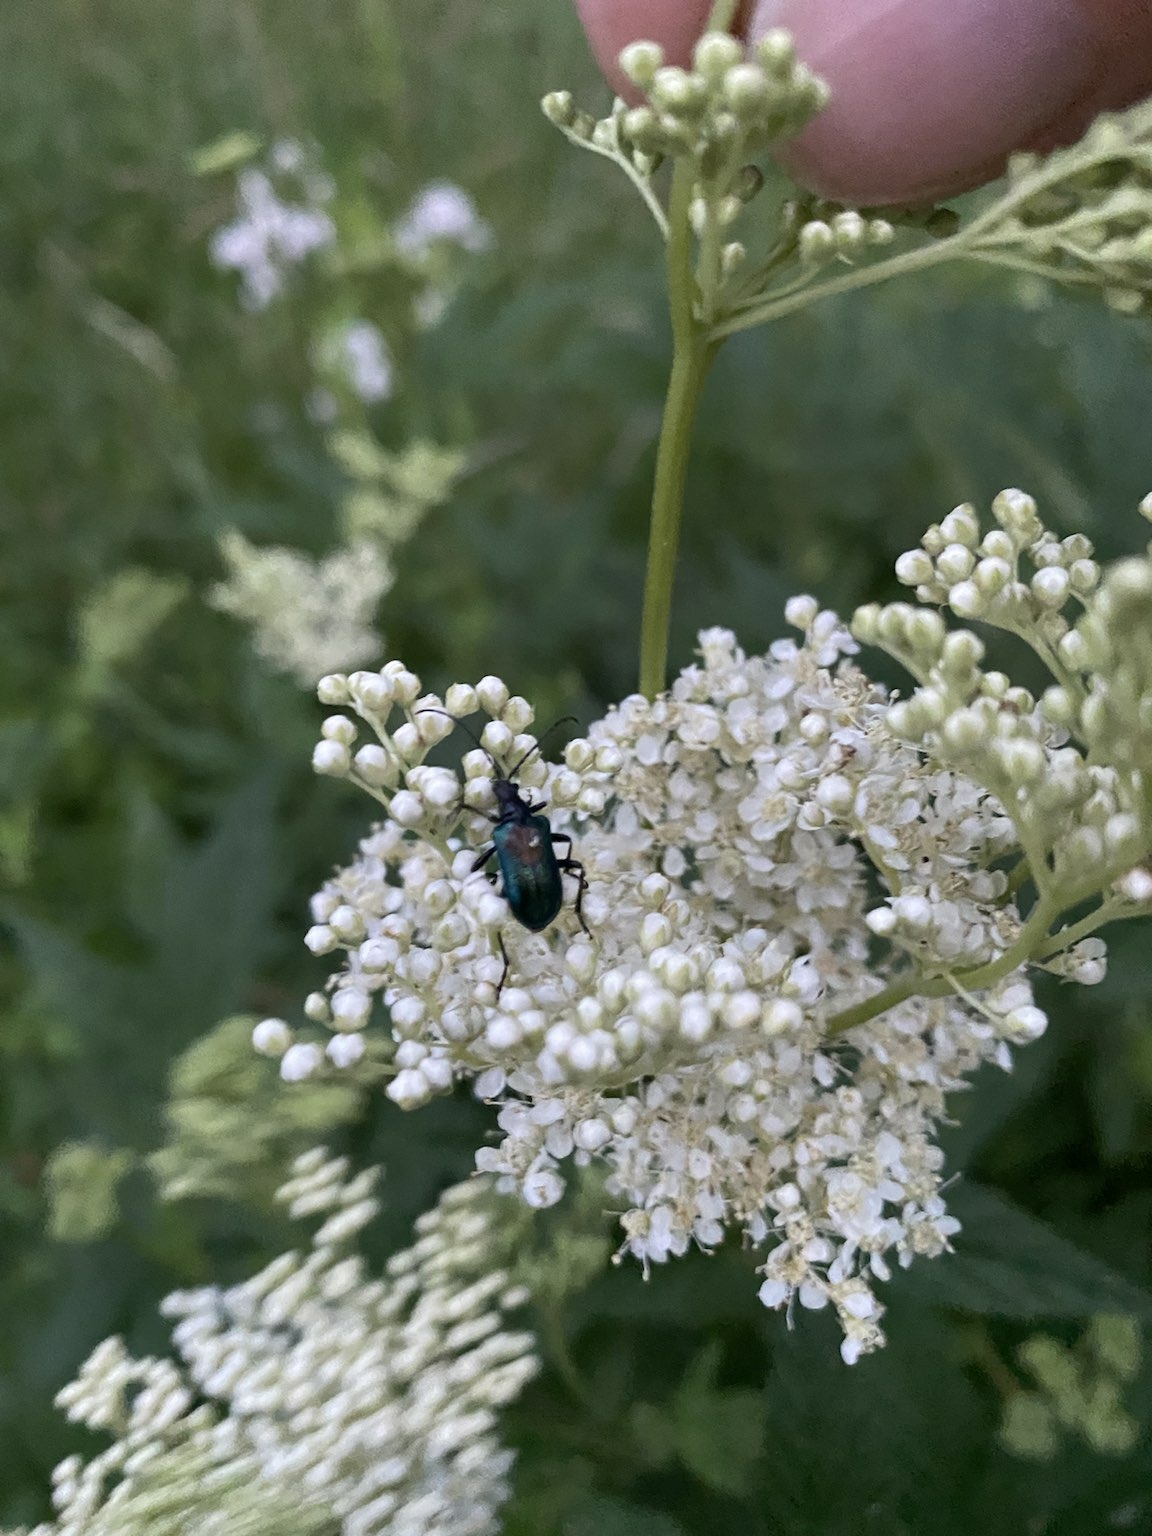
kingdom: Animalia
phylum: Arthropoda
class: Insecta
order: Coleoptera
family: Cerambycidae
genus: Gaurotes
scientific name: Gaurotes virginea
